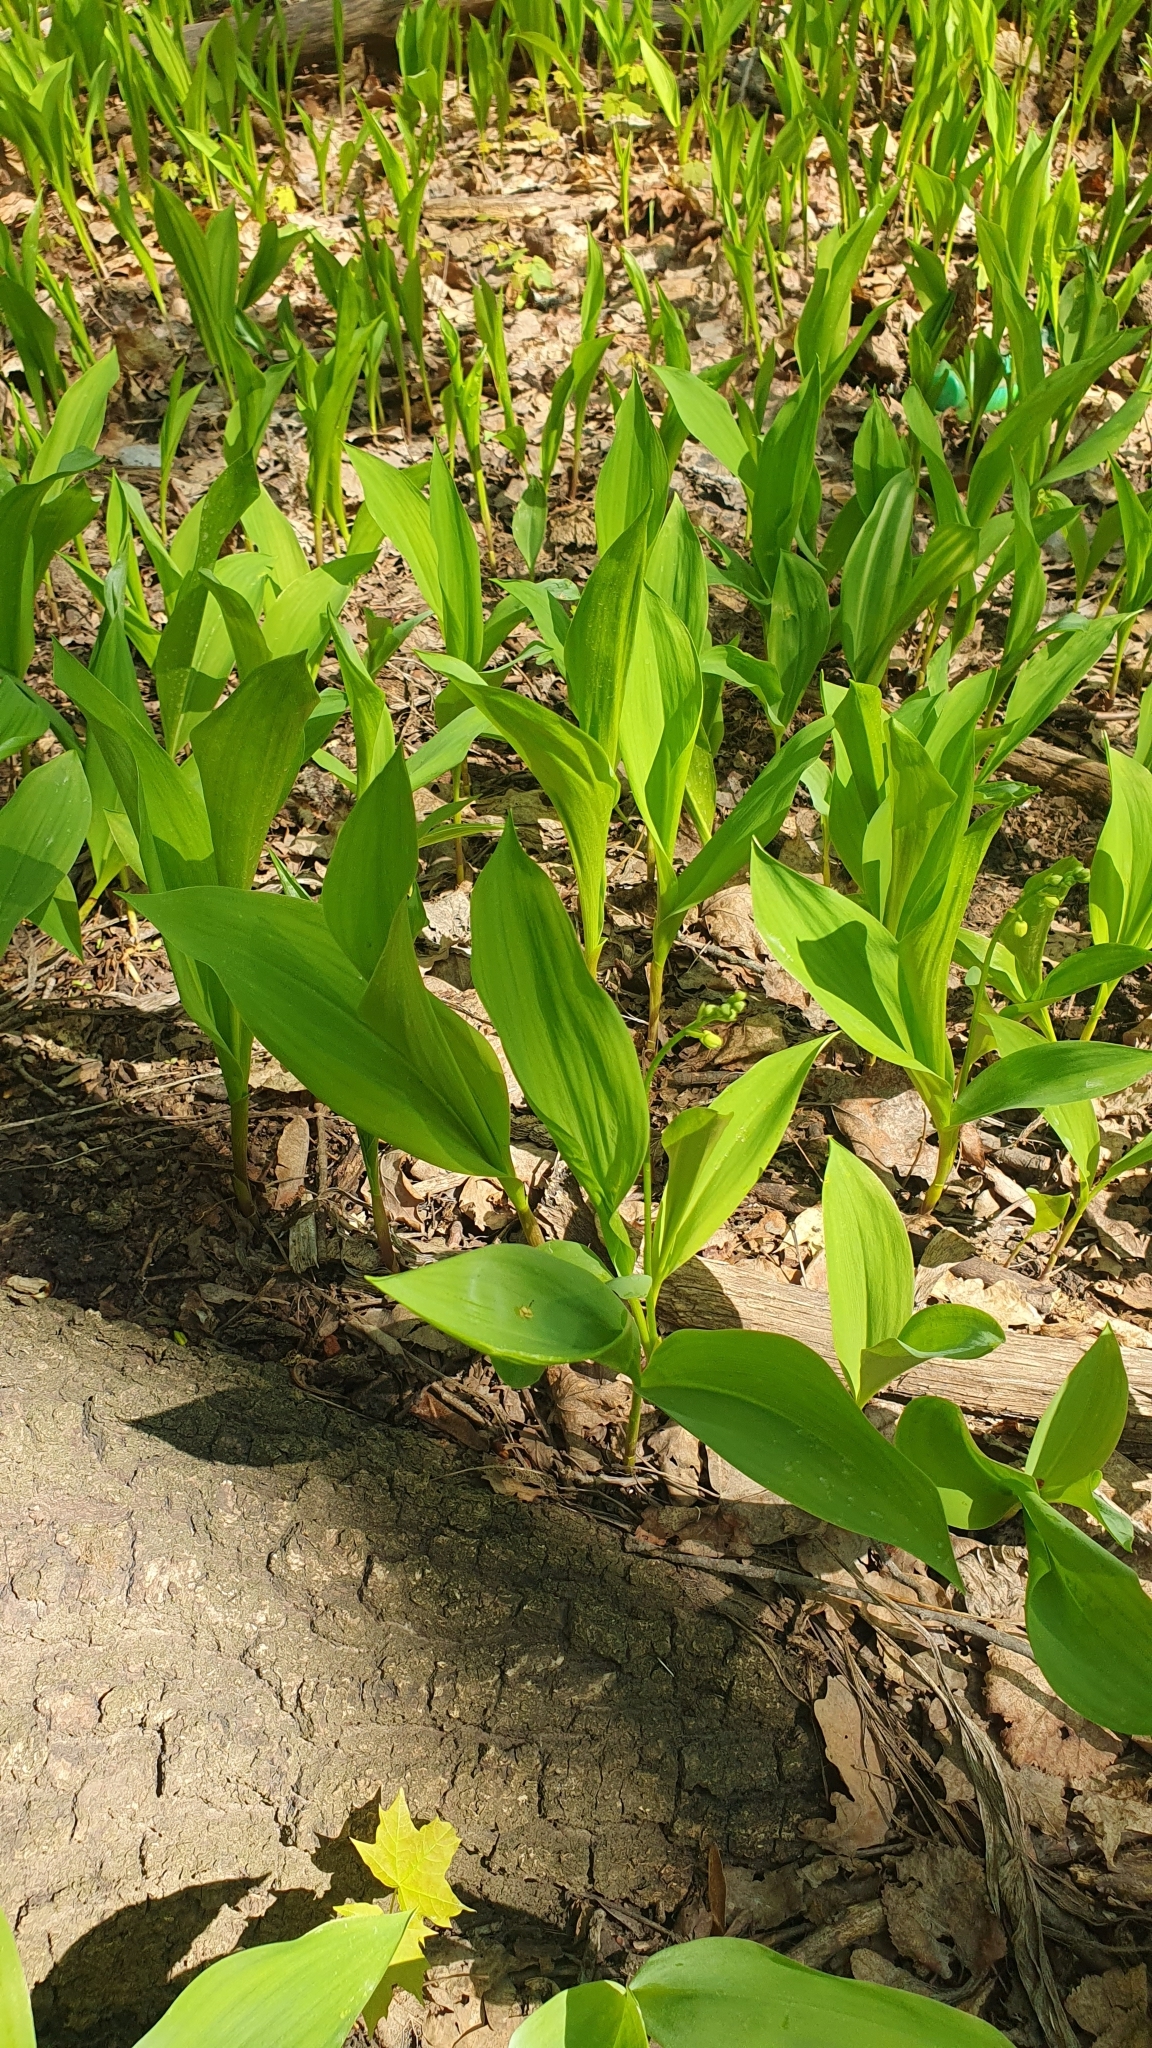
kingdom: Plantae
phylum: Tracheophyta
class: Liliopsida
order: Asparagales
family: Asparagaceae
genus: Convallaria
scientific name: Convallaria majalis
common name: Lily-of-the-valley
